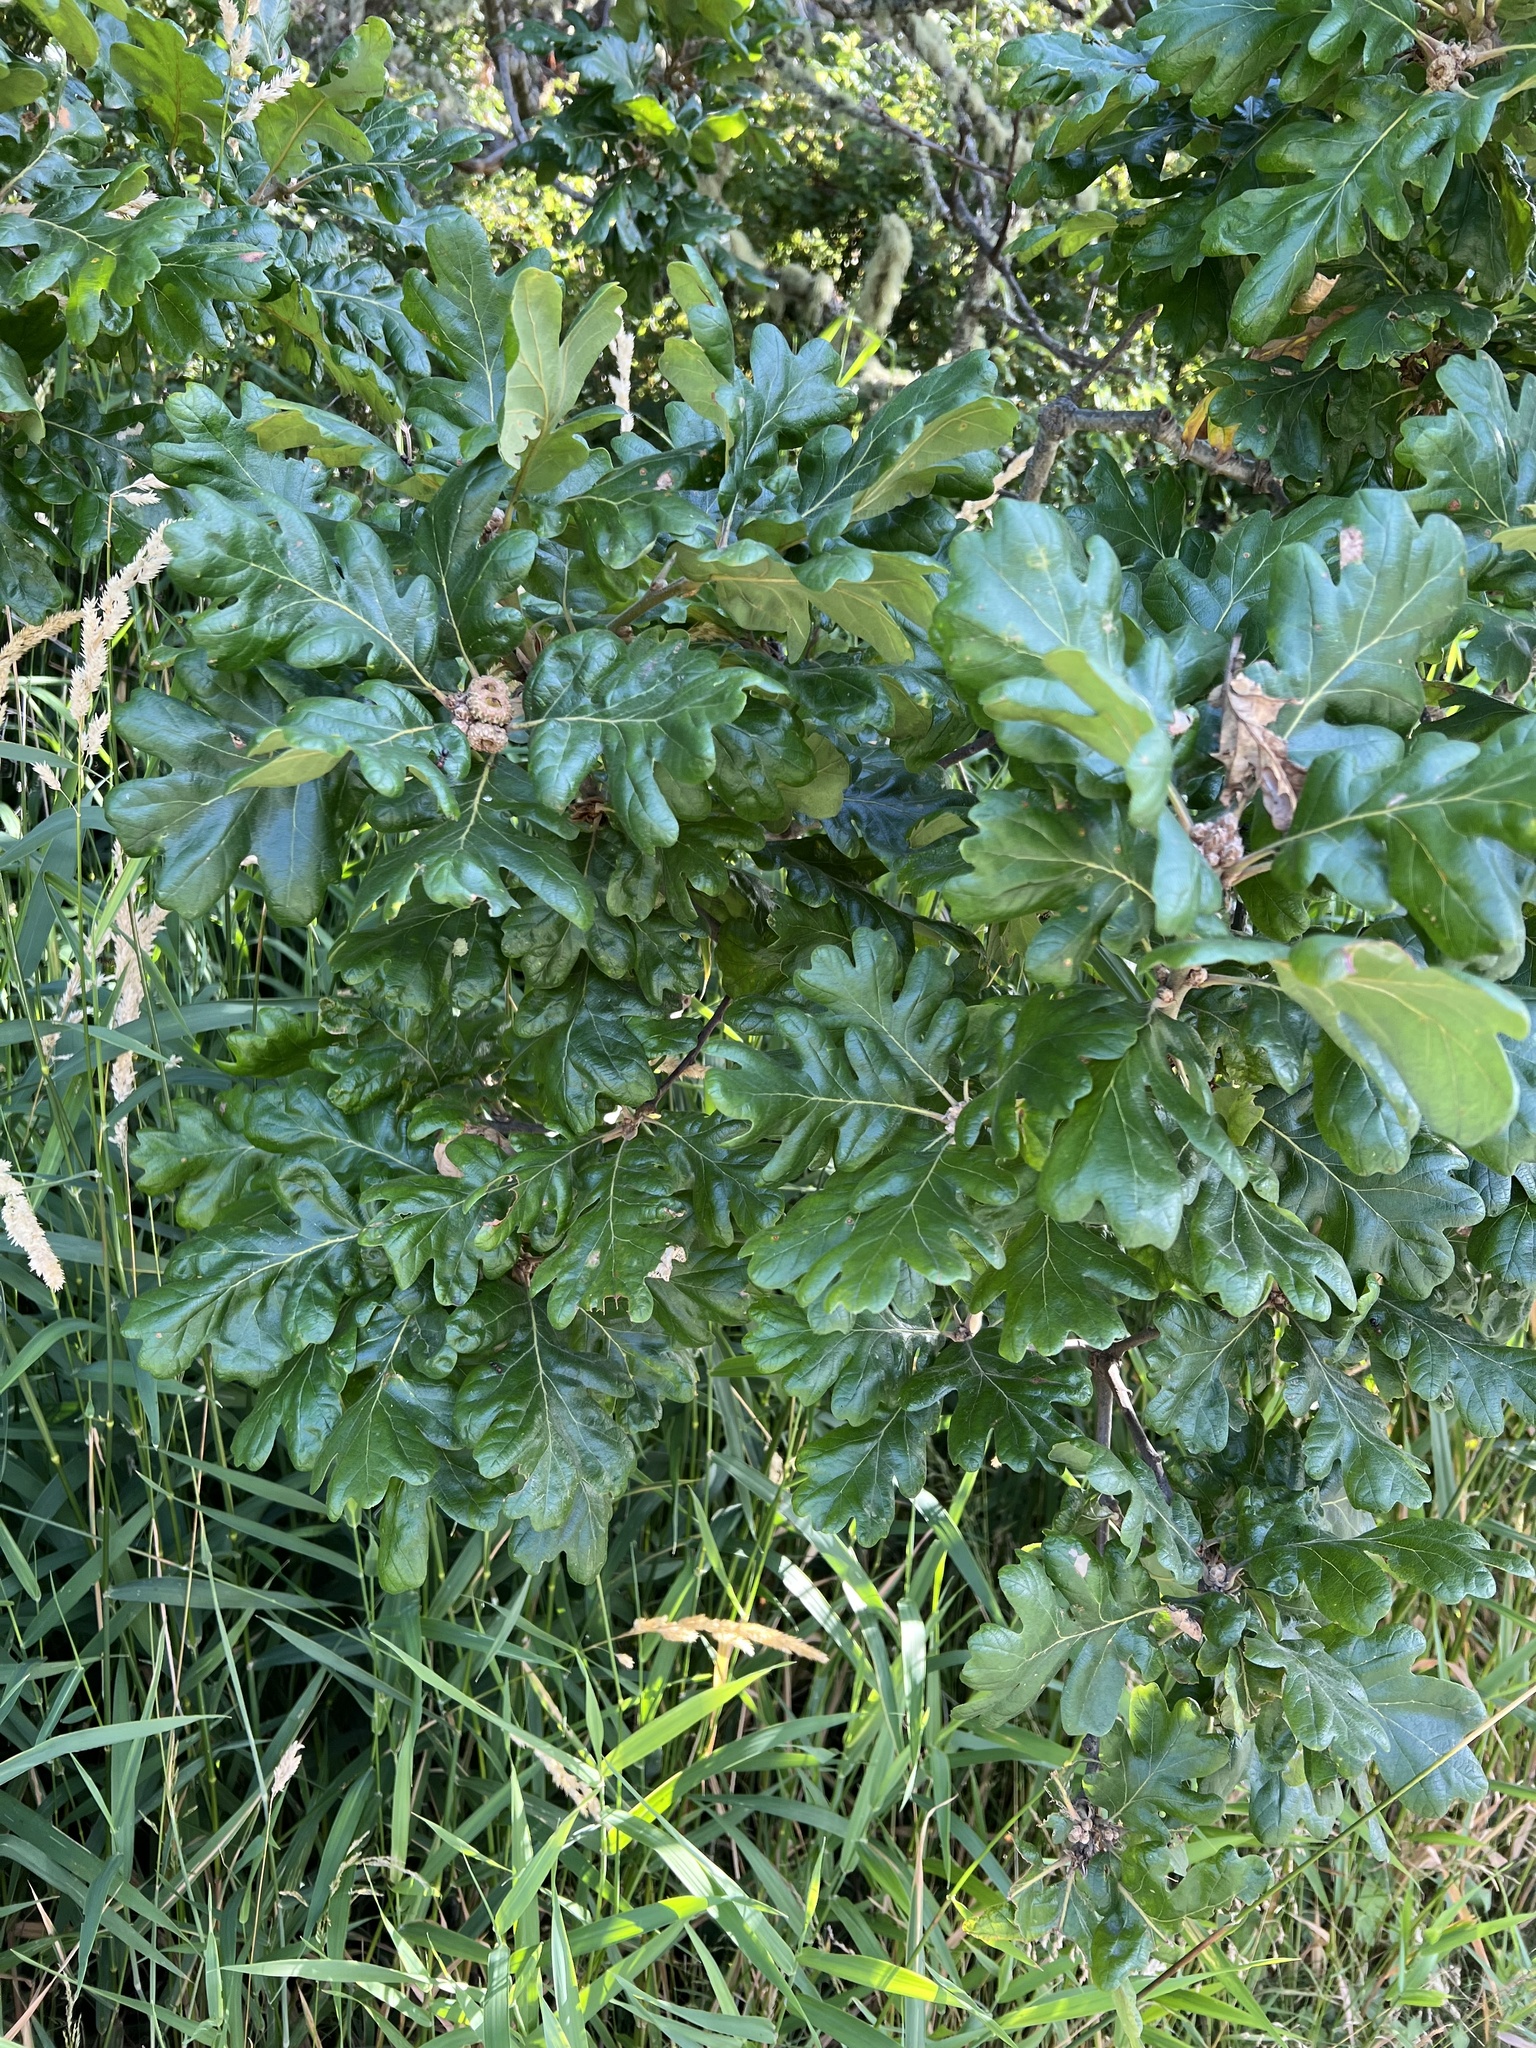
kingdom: Plantae
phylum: Tracheophyta
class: Magnoliopsida
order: Fagales
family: Fagaceae
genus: Quercus
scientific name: Quercus garryana
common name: Garry oak
